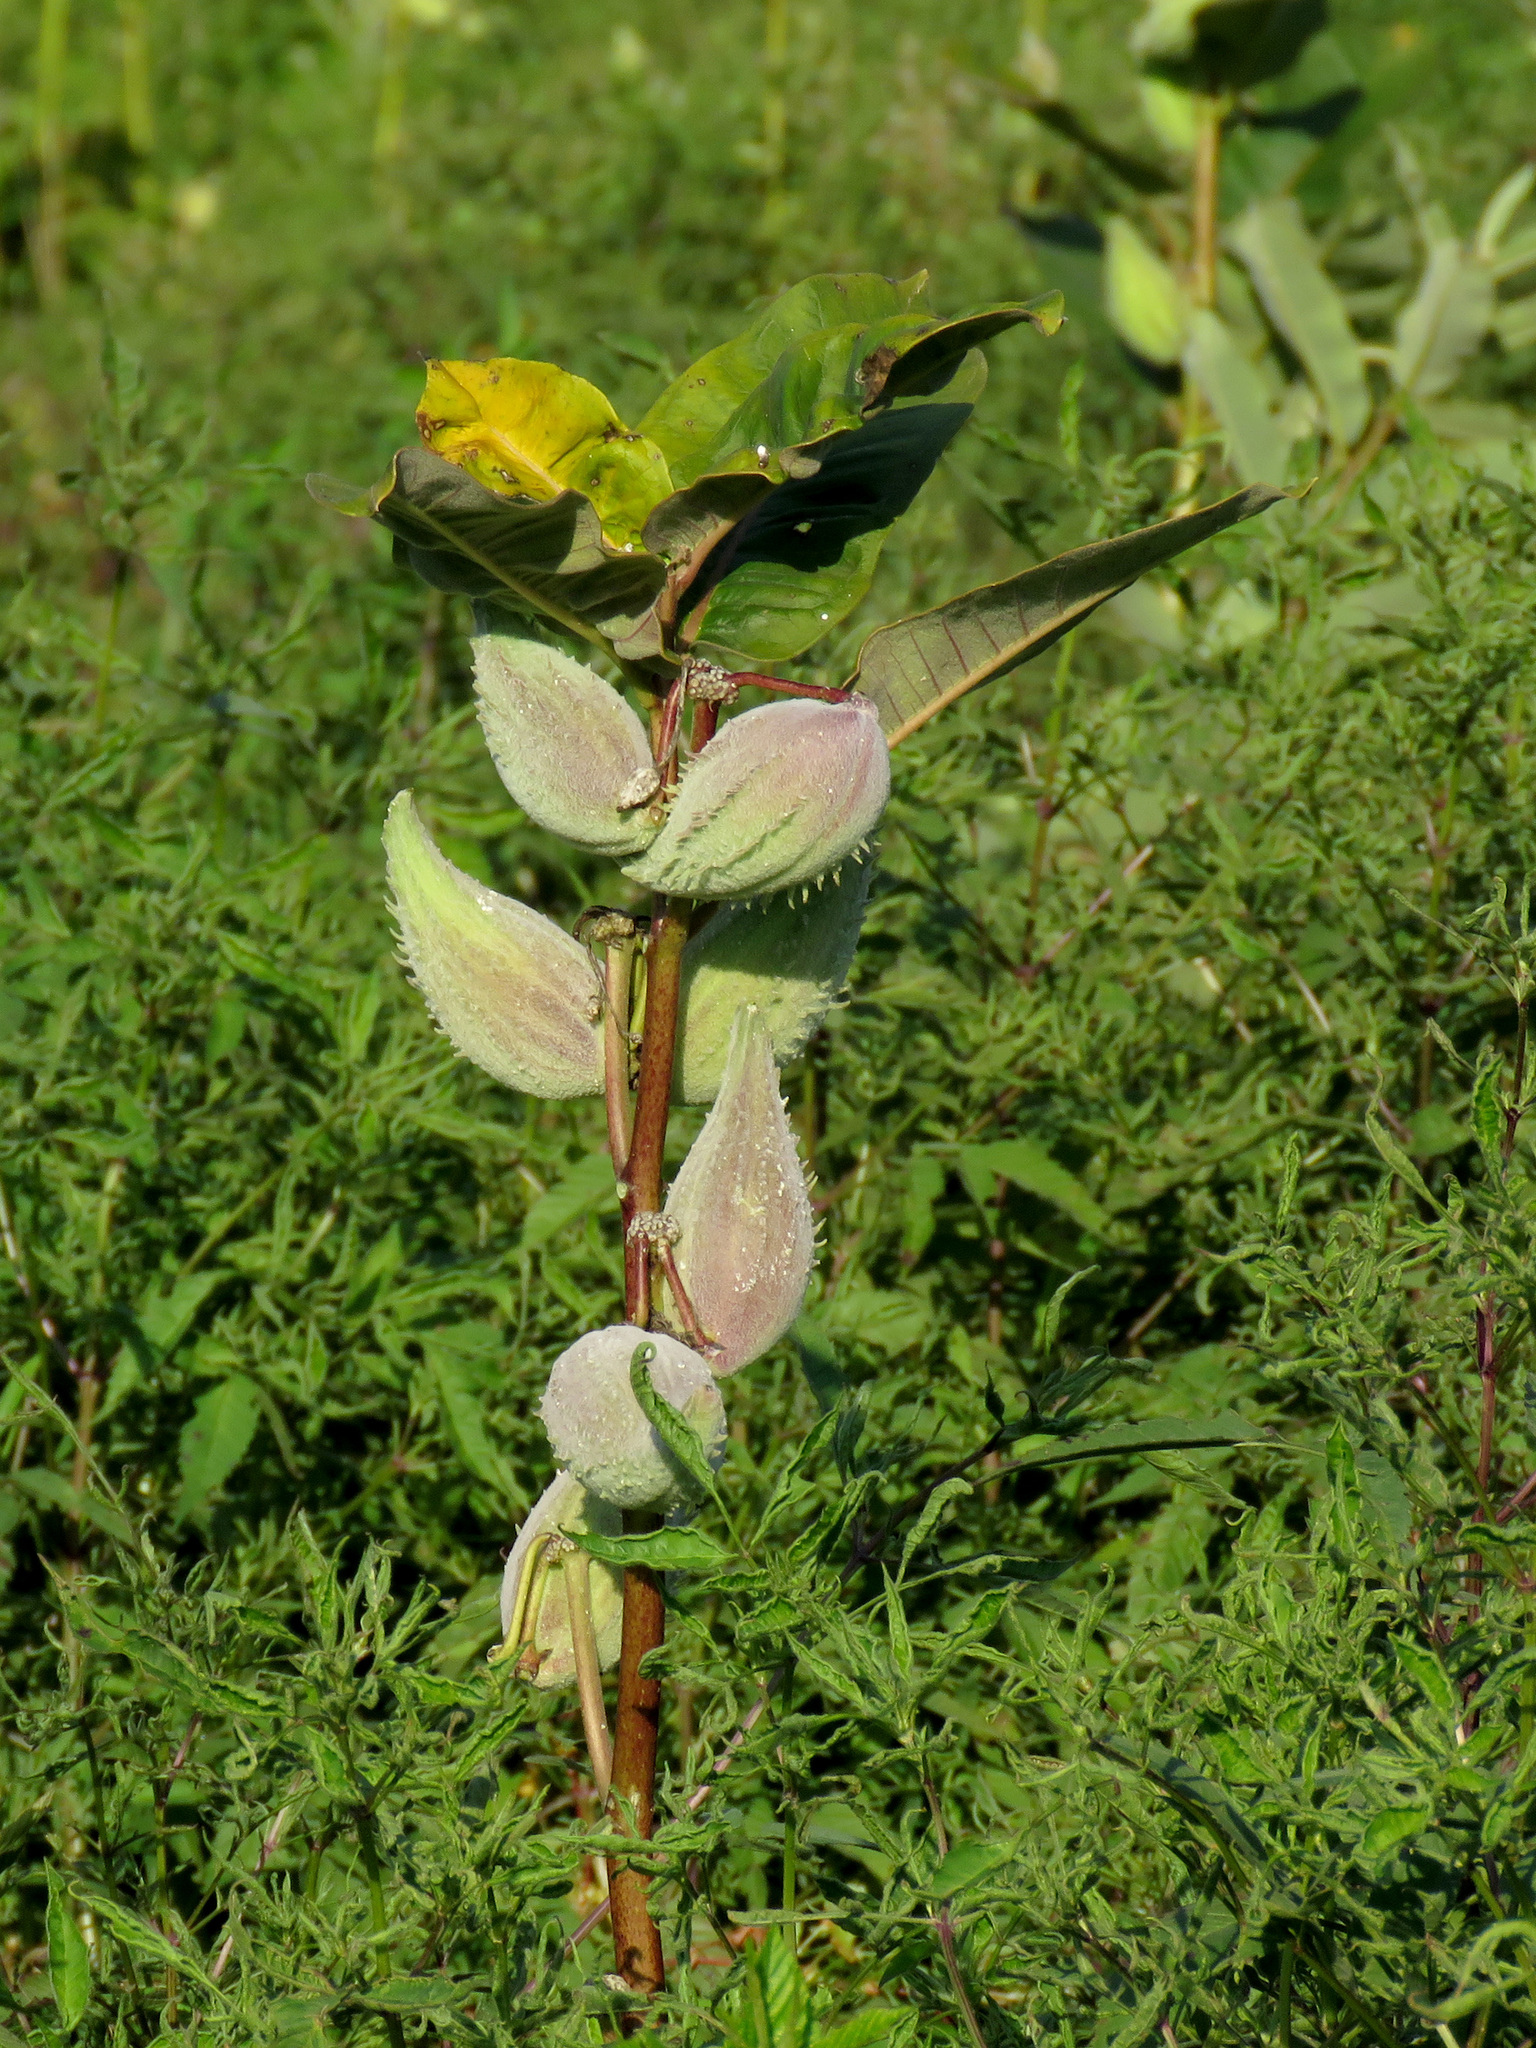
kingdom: Plantae
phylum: Tracheophyta
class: Magnoliopsida
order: Gentianales
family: Apocynaceae
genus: Asclepias
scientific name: Asclepias syriaca
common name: Common milkweed
